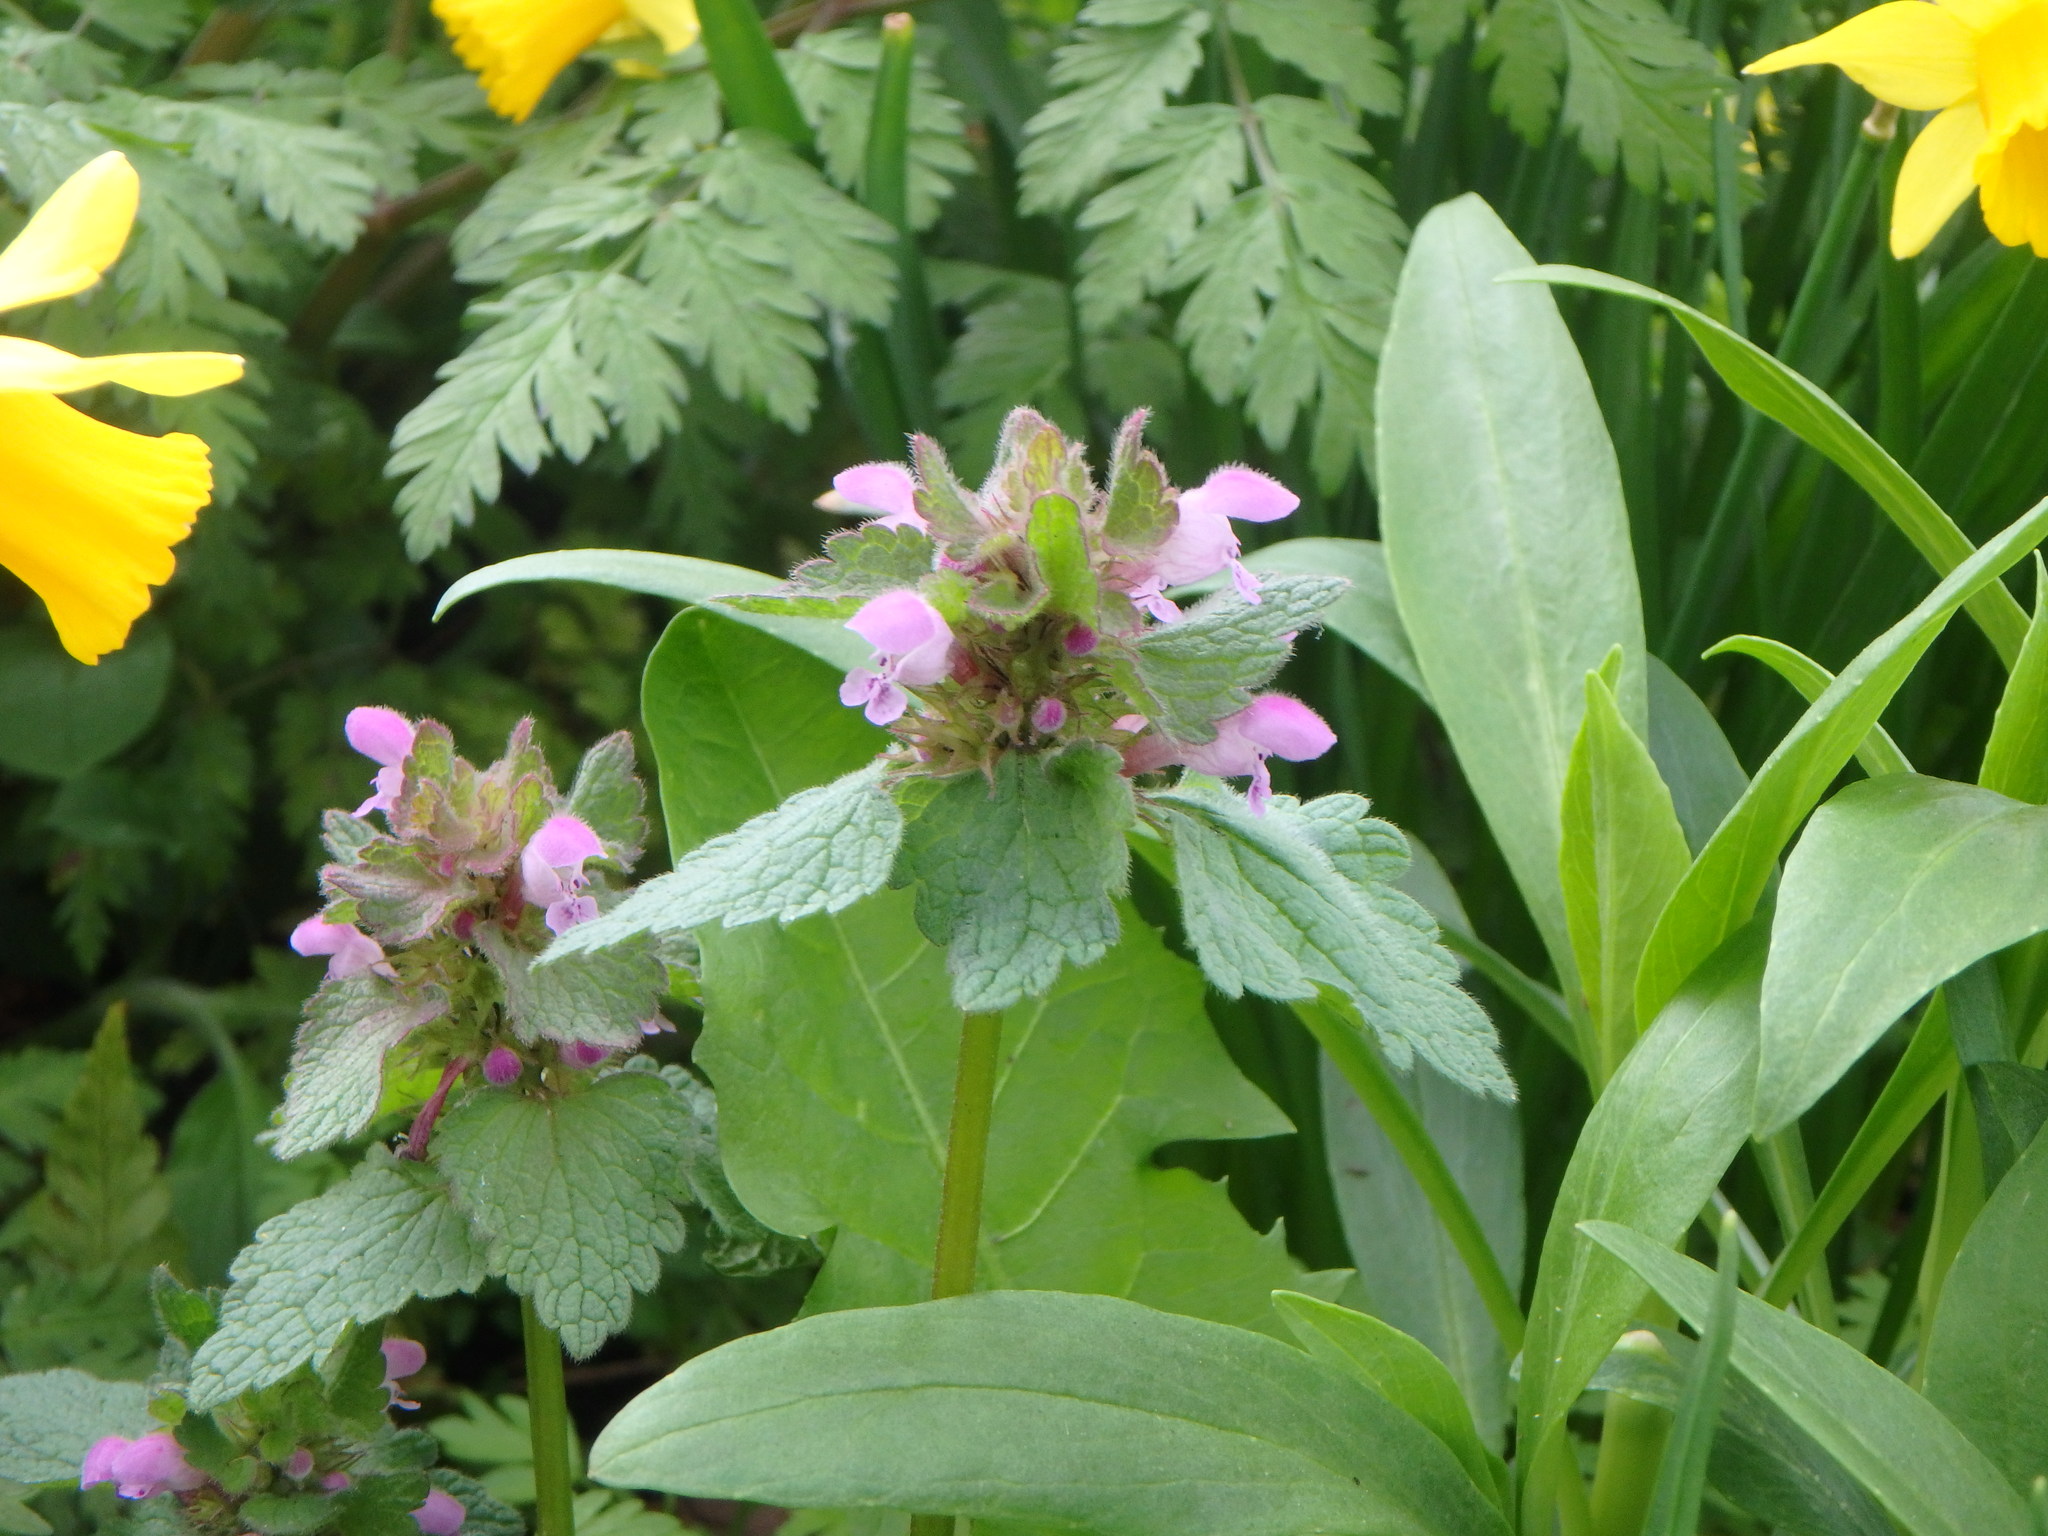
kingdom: Plantae
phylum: Tracheophyta
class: Magnoliopsida
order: Lamiales
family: Lamiaceae
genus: Lamium
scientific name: Lamium purpureum
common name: Red dead-nettle
